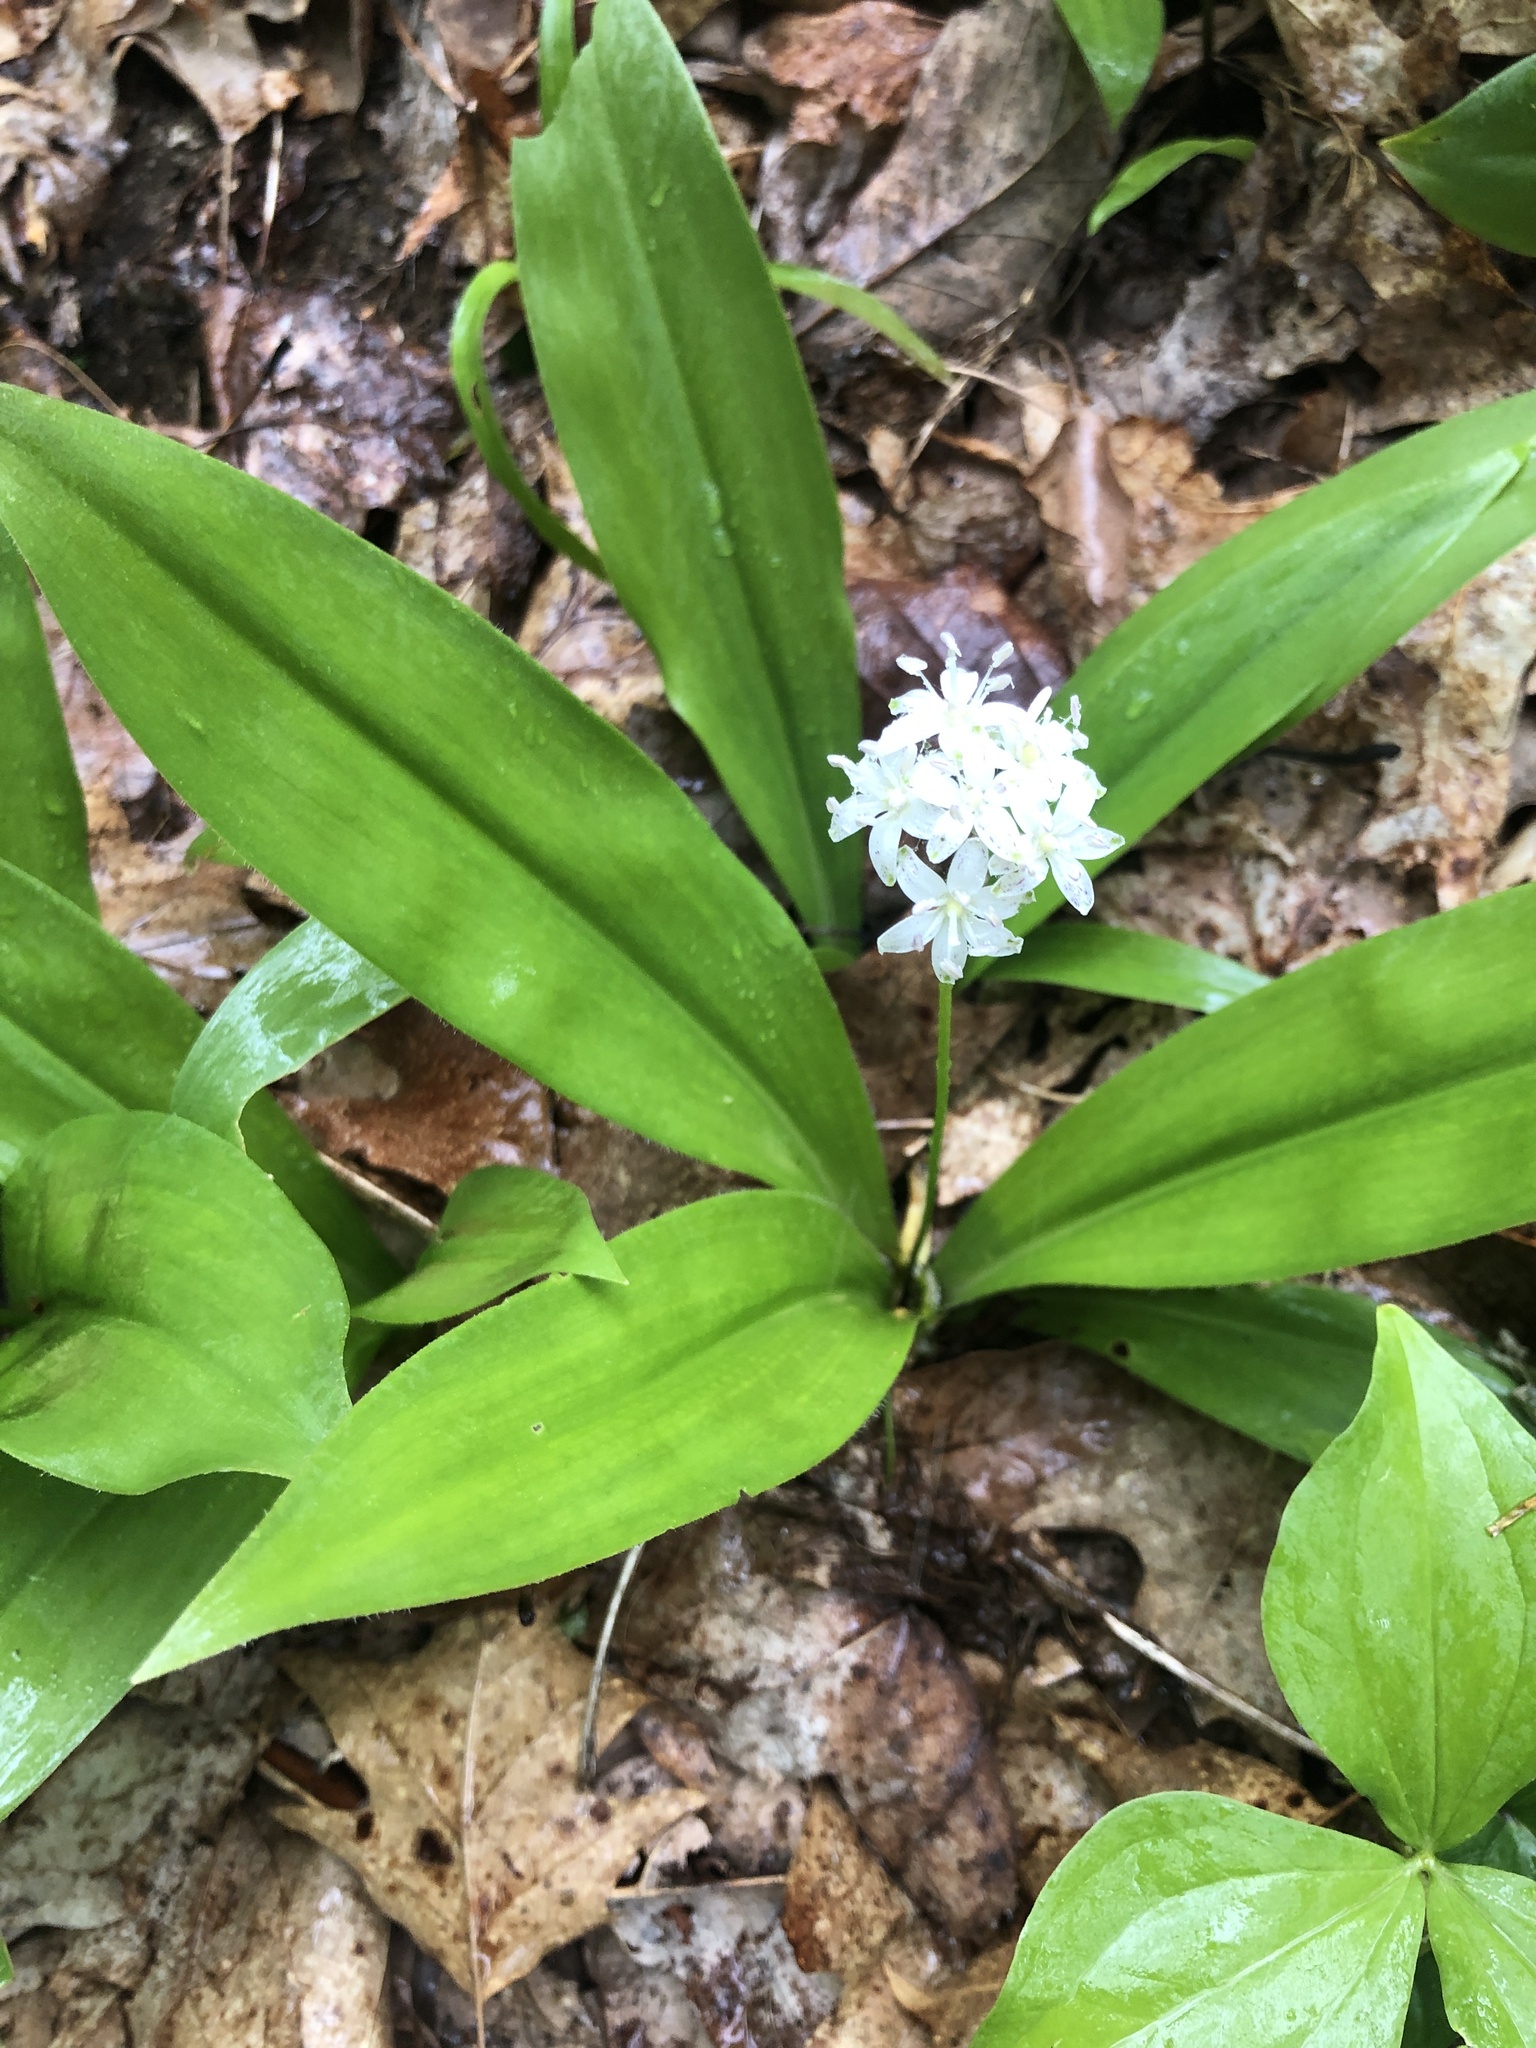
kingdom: Plantae
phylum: Tracheophyta
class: Liliopsida
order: Liliales
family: Liliaceae
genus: Clintonia
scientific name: Clintonia umbellulata
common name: Speckle wood-lily
